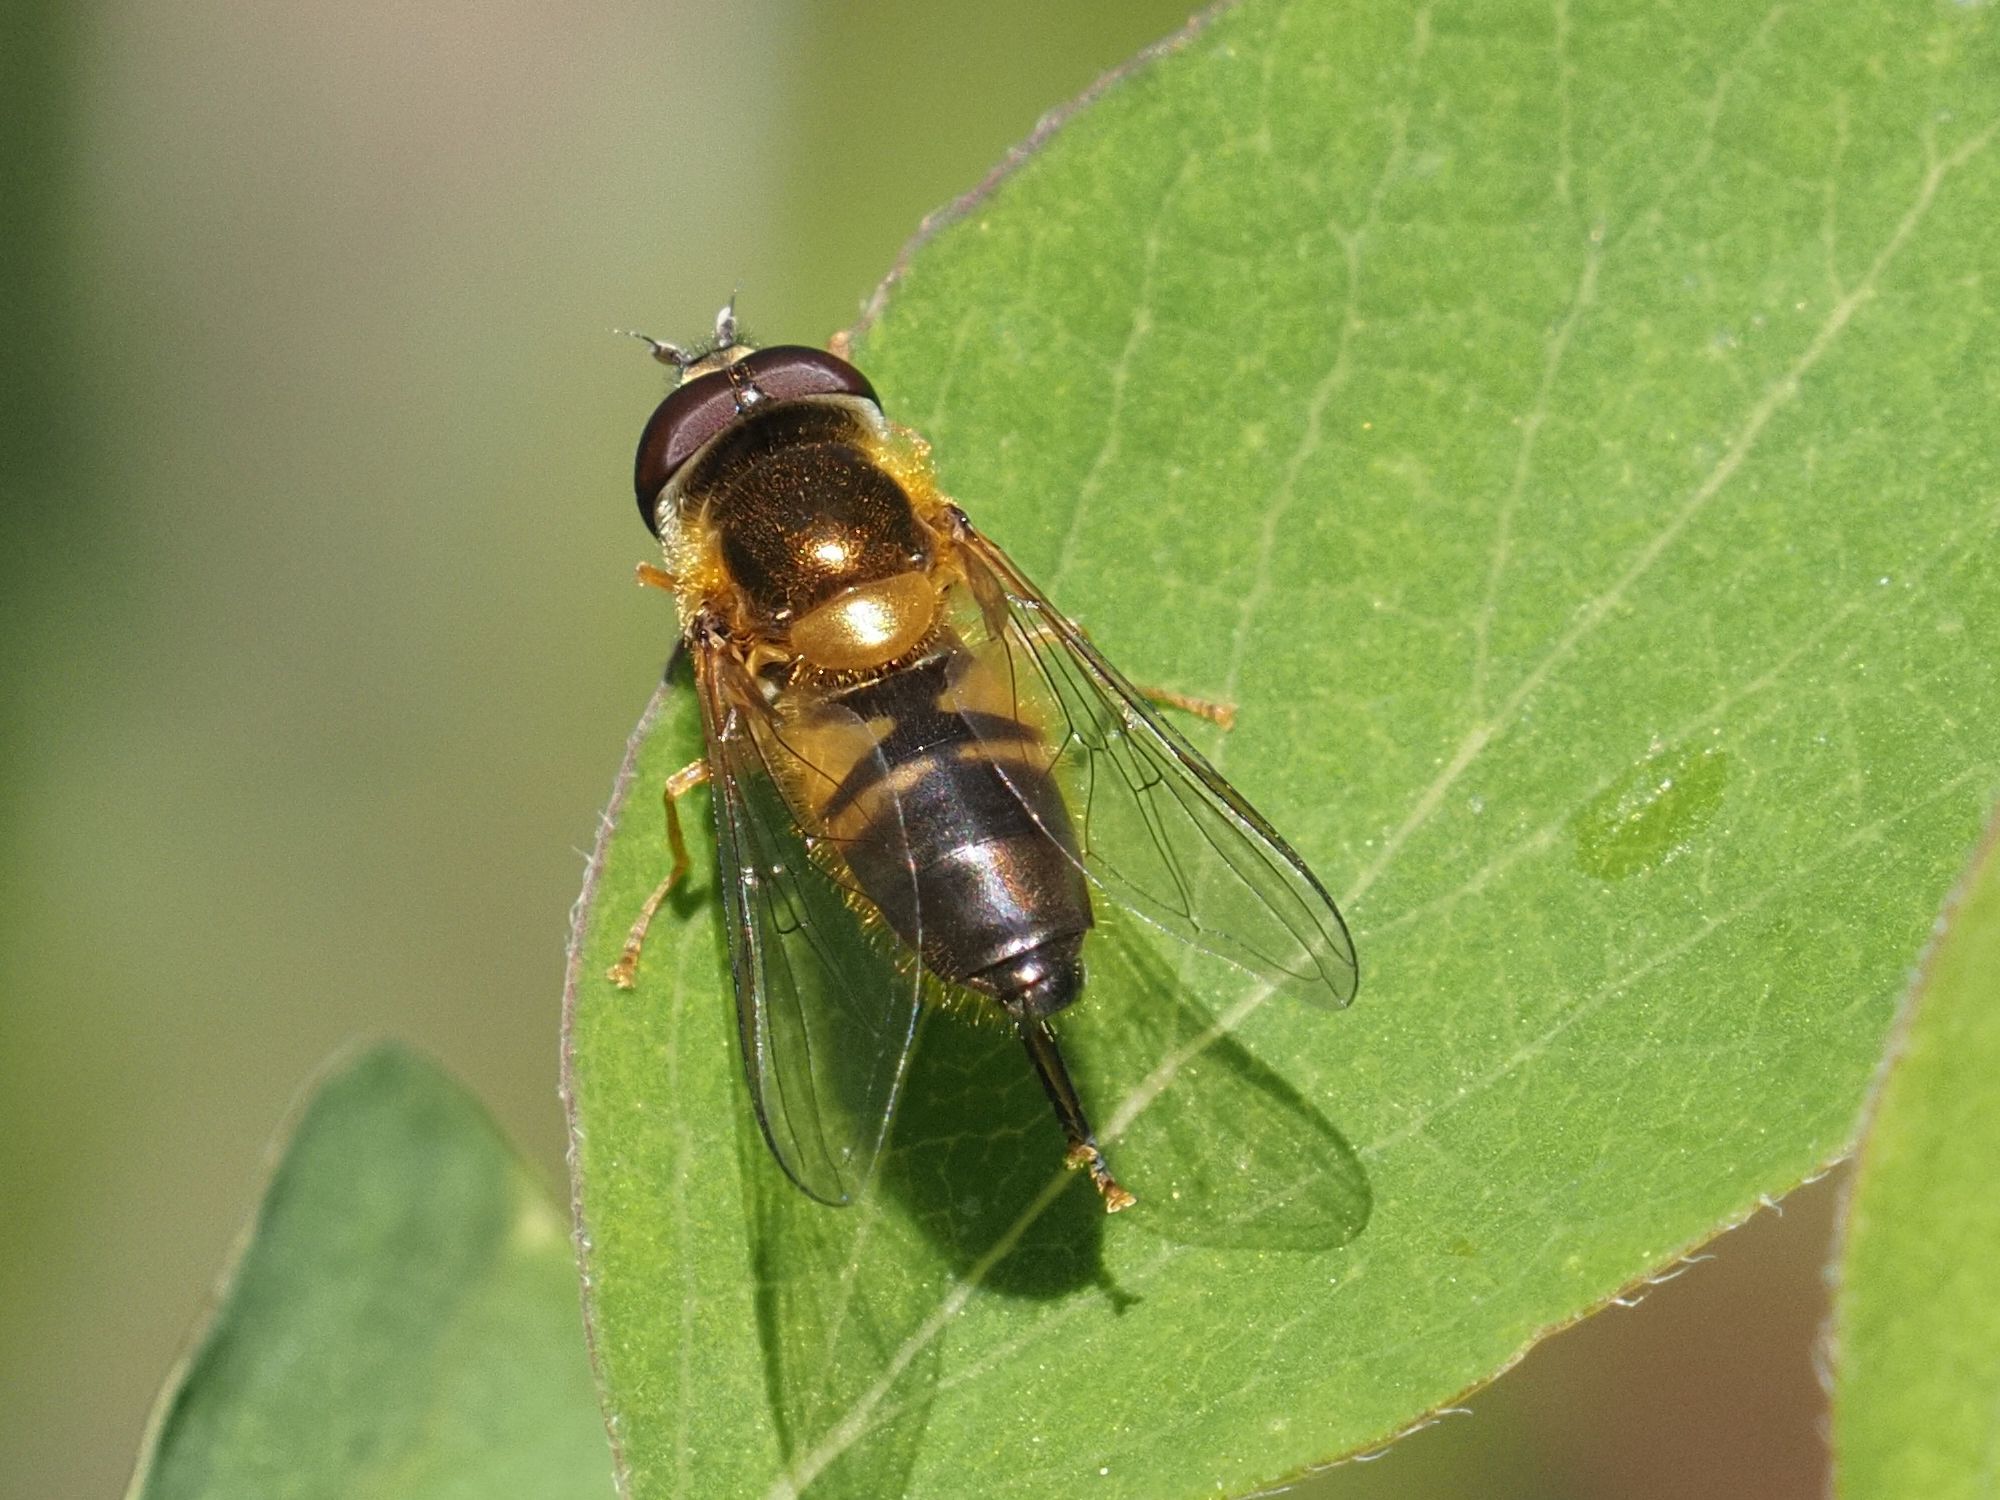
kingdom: Animalia
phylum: Arthropoda
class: Insecta
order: Diptera
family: Syrphidae
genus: Epistrophe
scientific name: Epistrophe eligans
